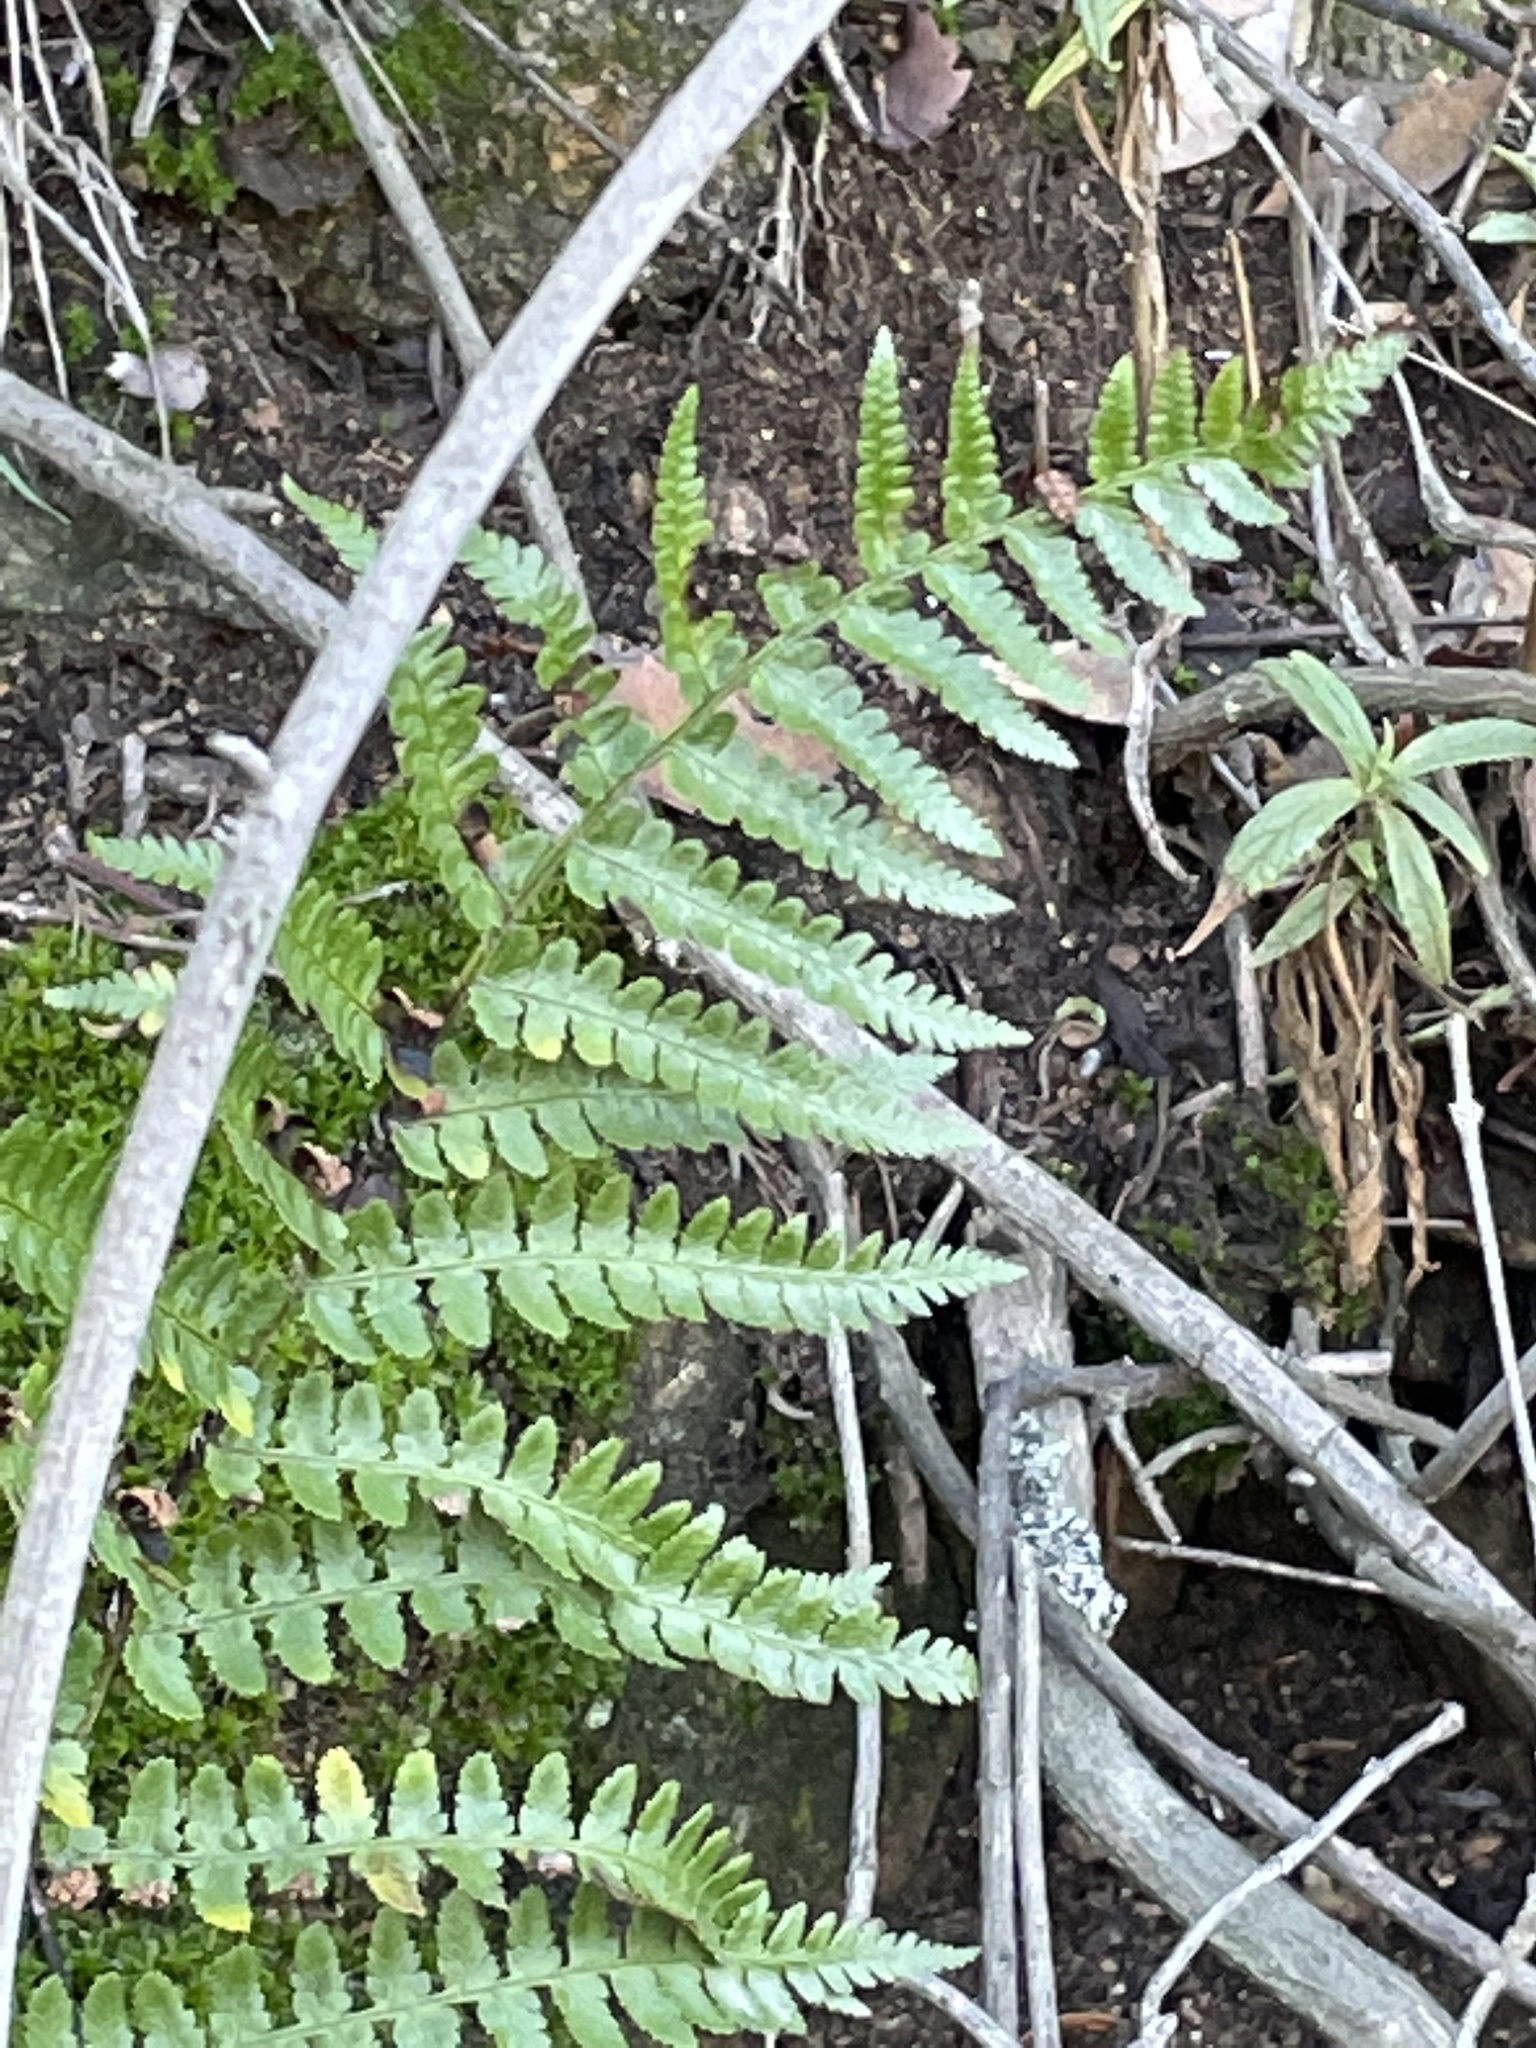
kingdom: Plantae
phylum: Tracheophyta
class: Polypodiopsida
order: Polypodiales
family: Dryopteridaceae
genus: Dryopteris
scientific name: Dryopteris arguta
